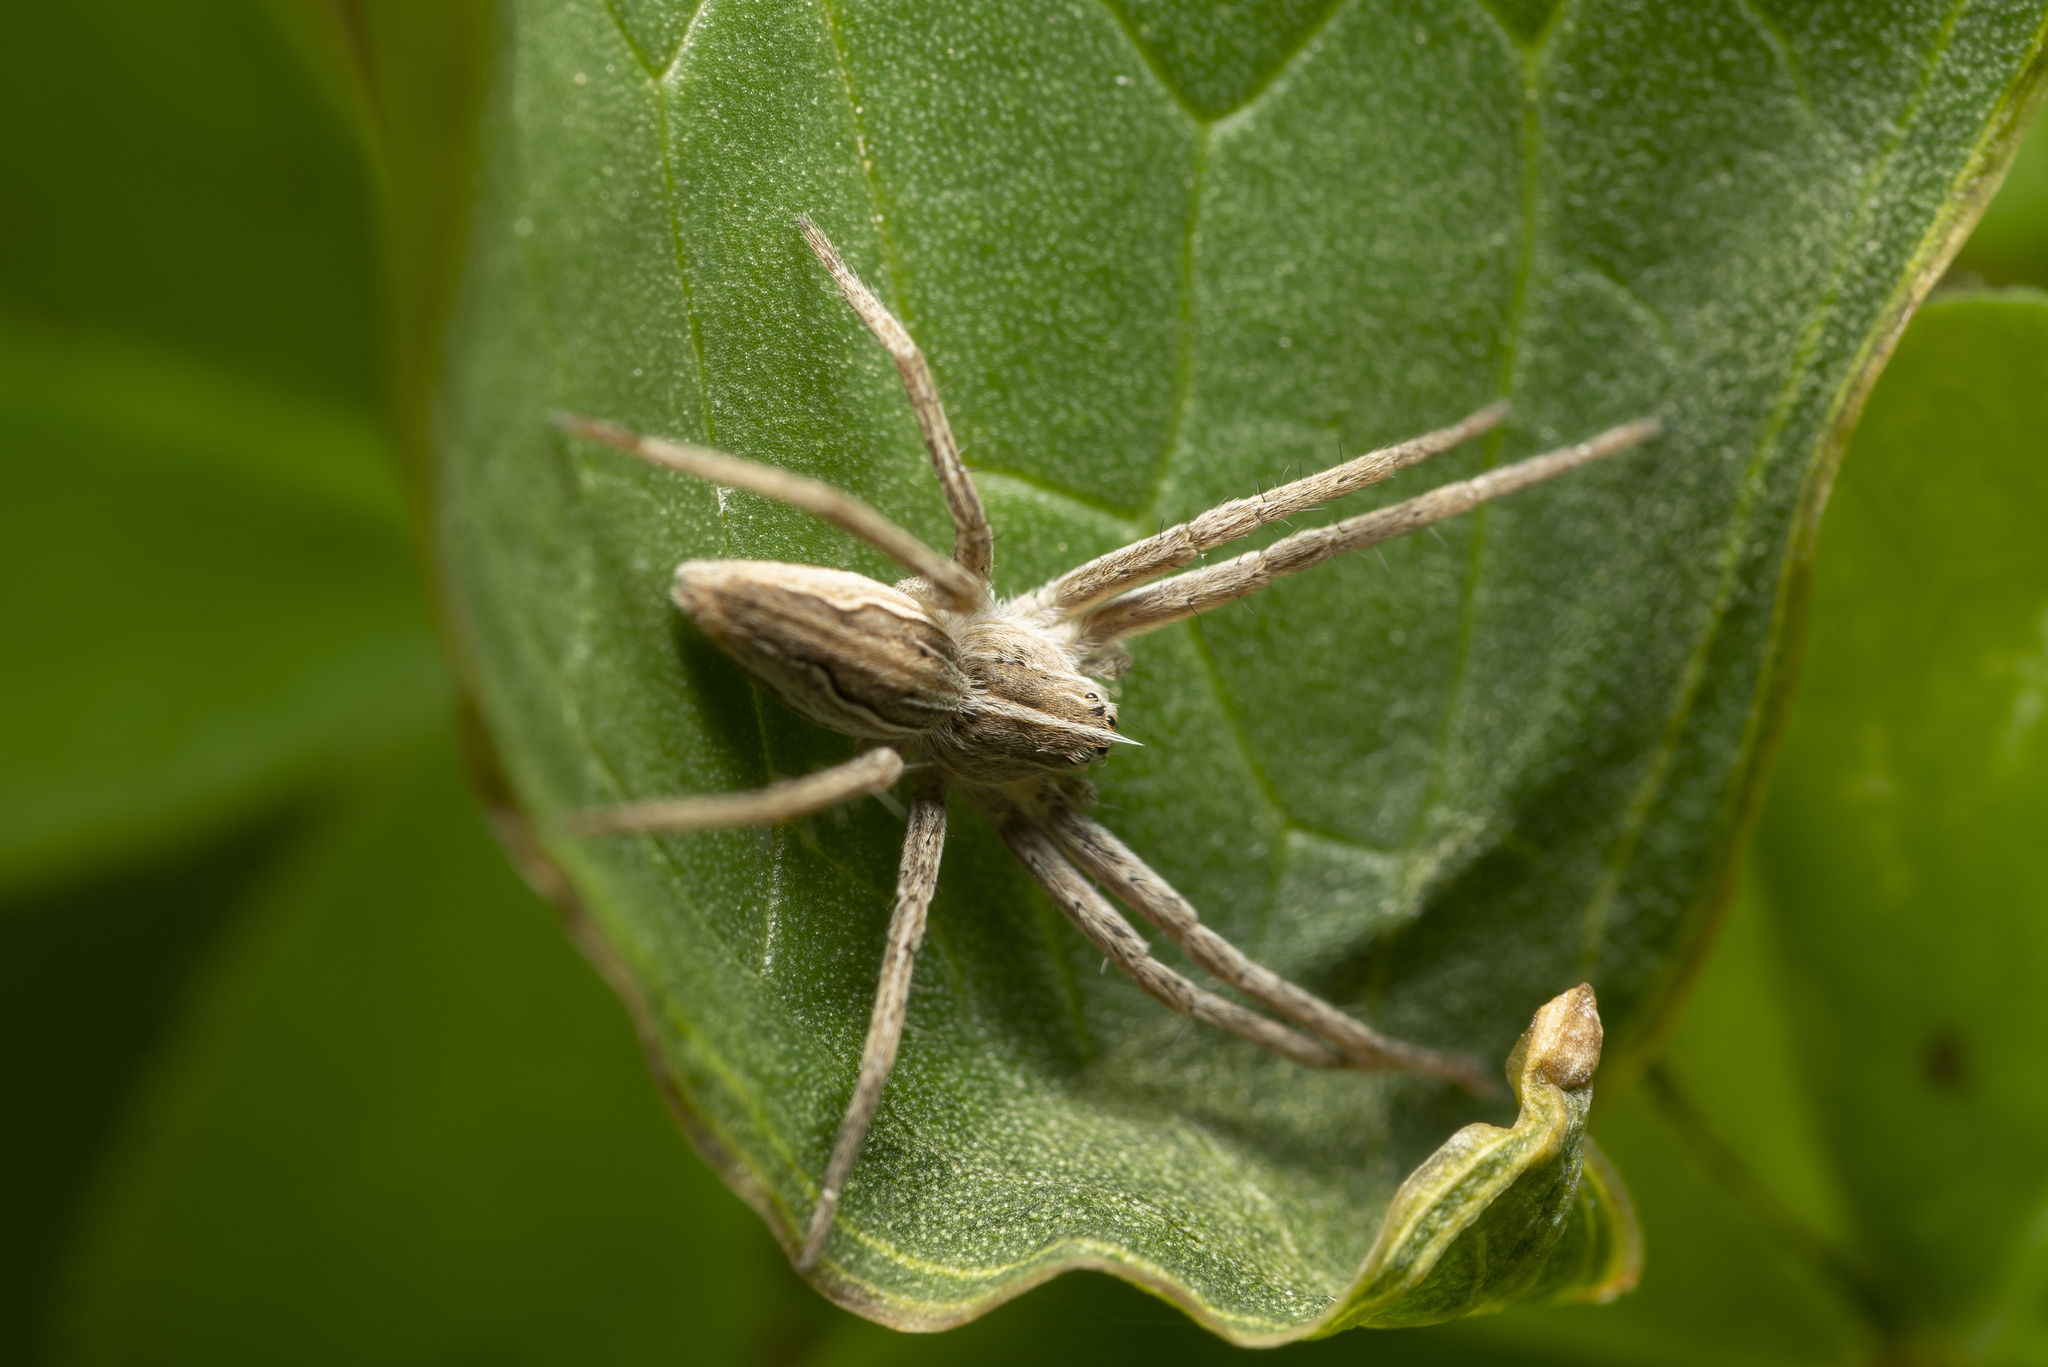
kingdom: Animalia
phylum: Arthropoda
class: Arachnida
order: Araneae
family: Pisauridae
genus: Pisaura
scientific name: Pisaura
